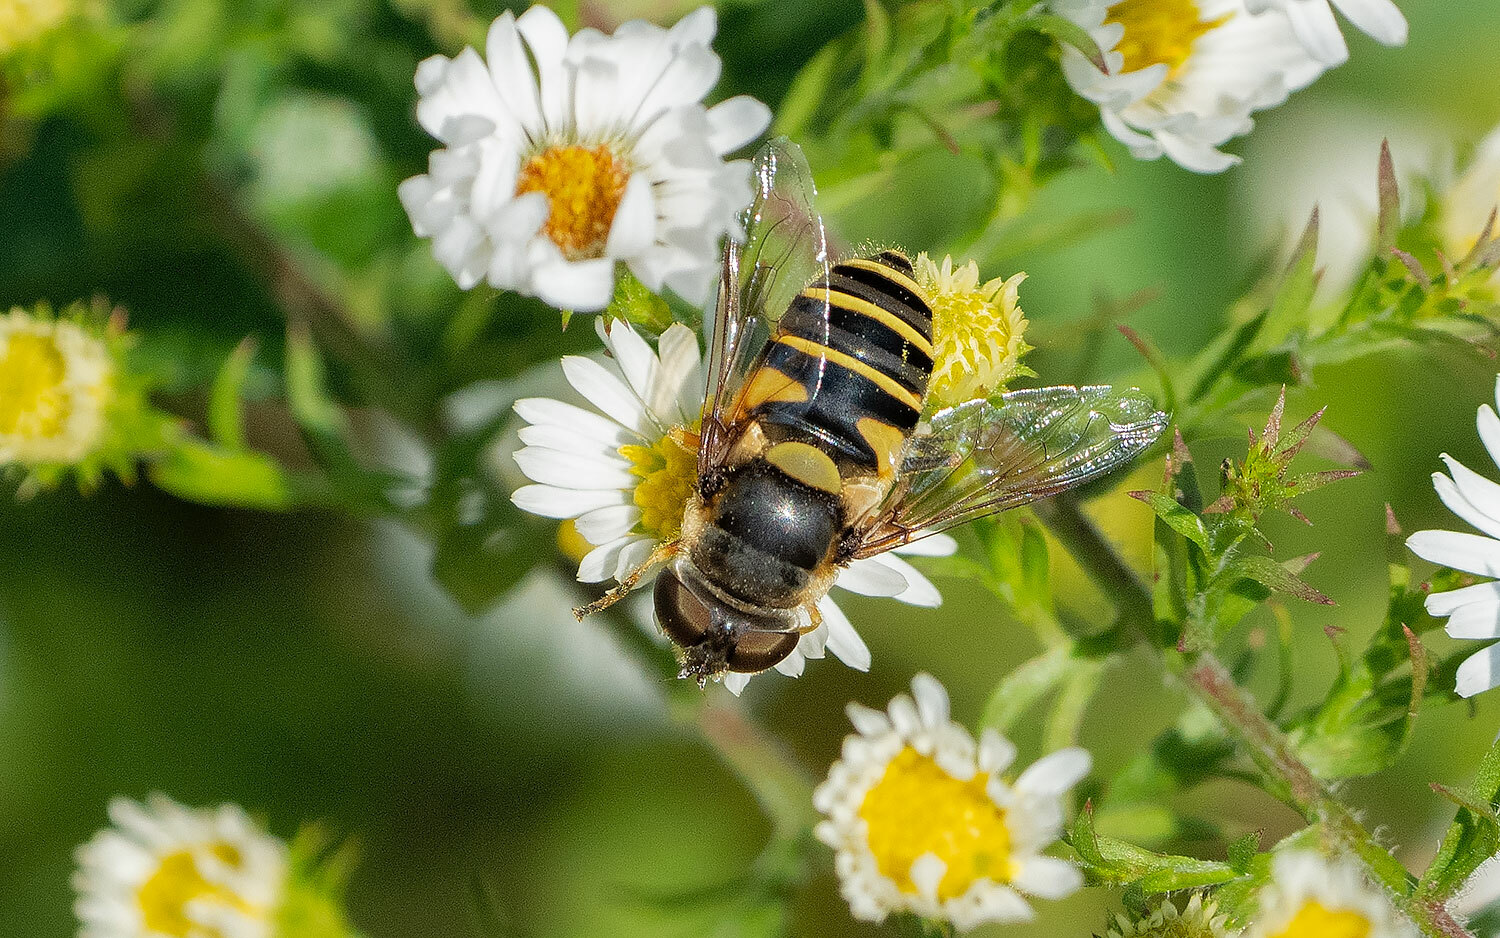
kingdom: Animalia
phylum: Arthropoda
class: Insecta
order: Diptera
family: Syrphidae
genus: Eristalis
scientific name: Eristalis transversa
